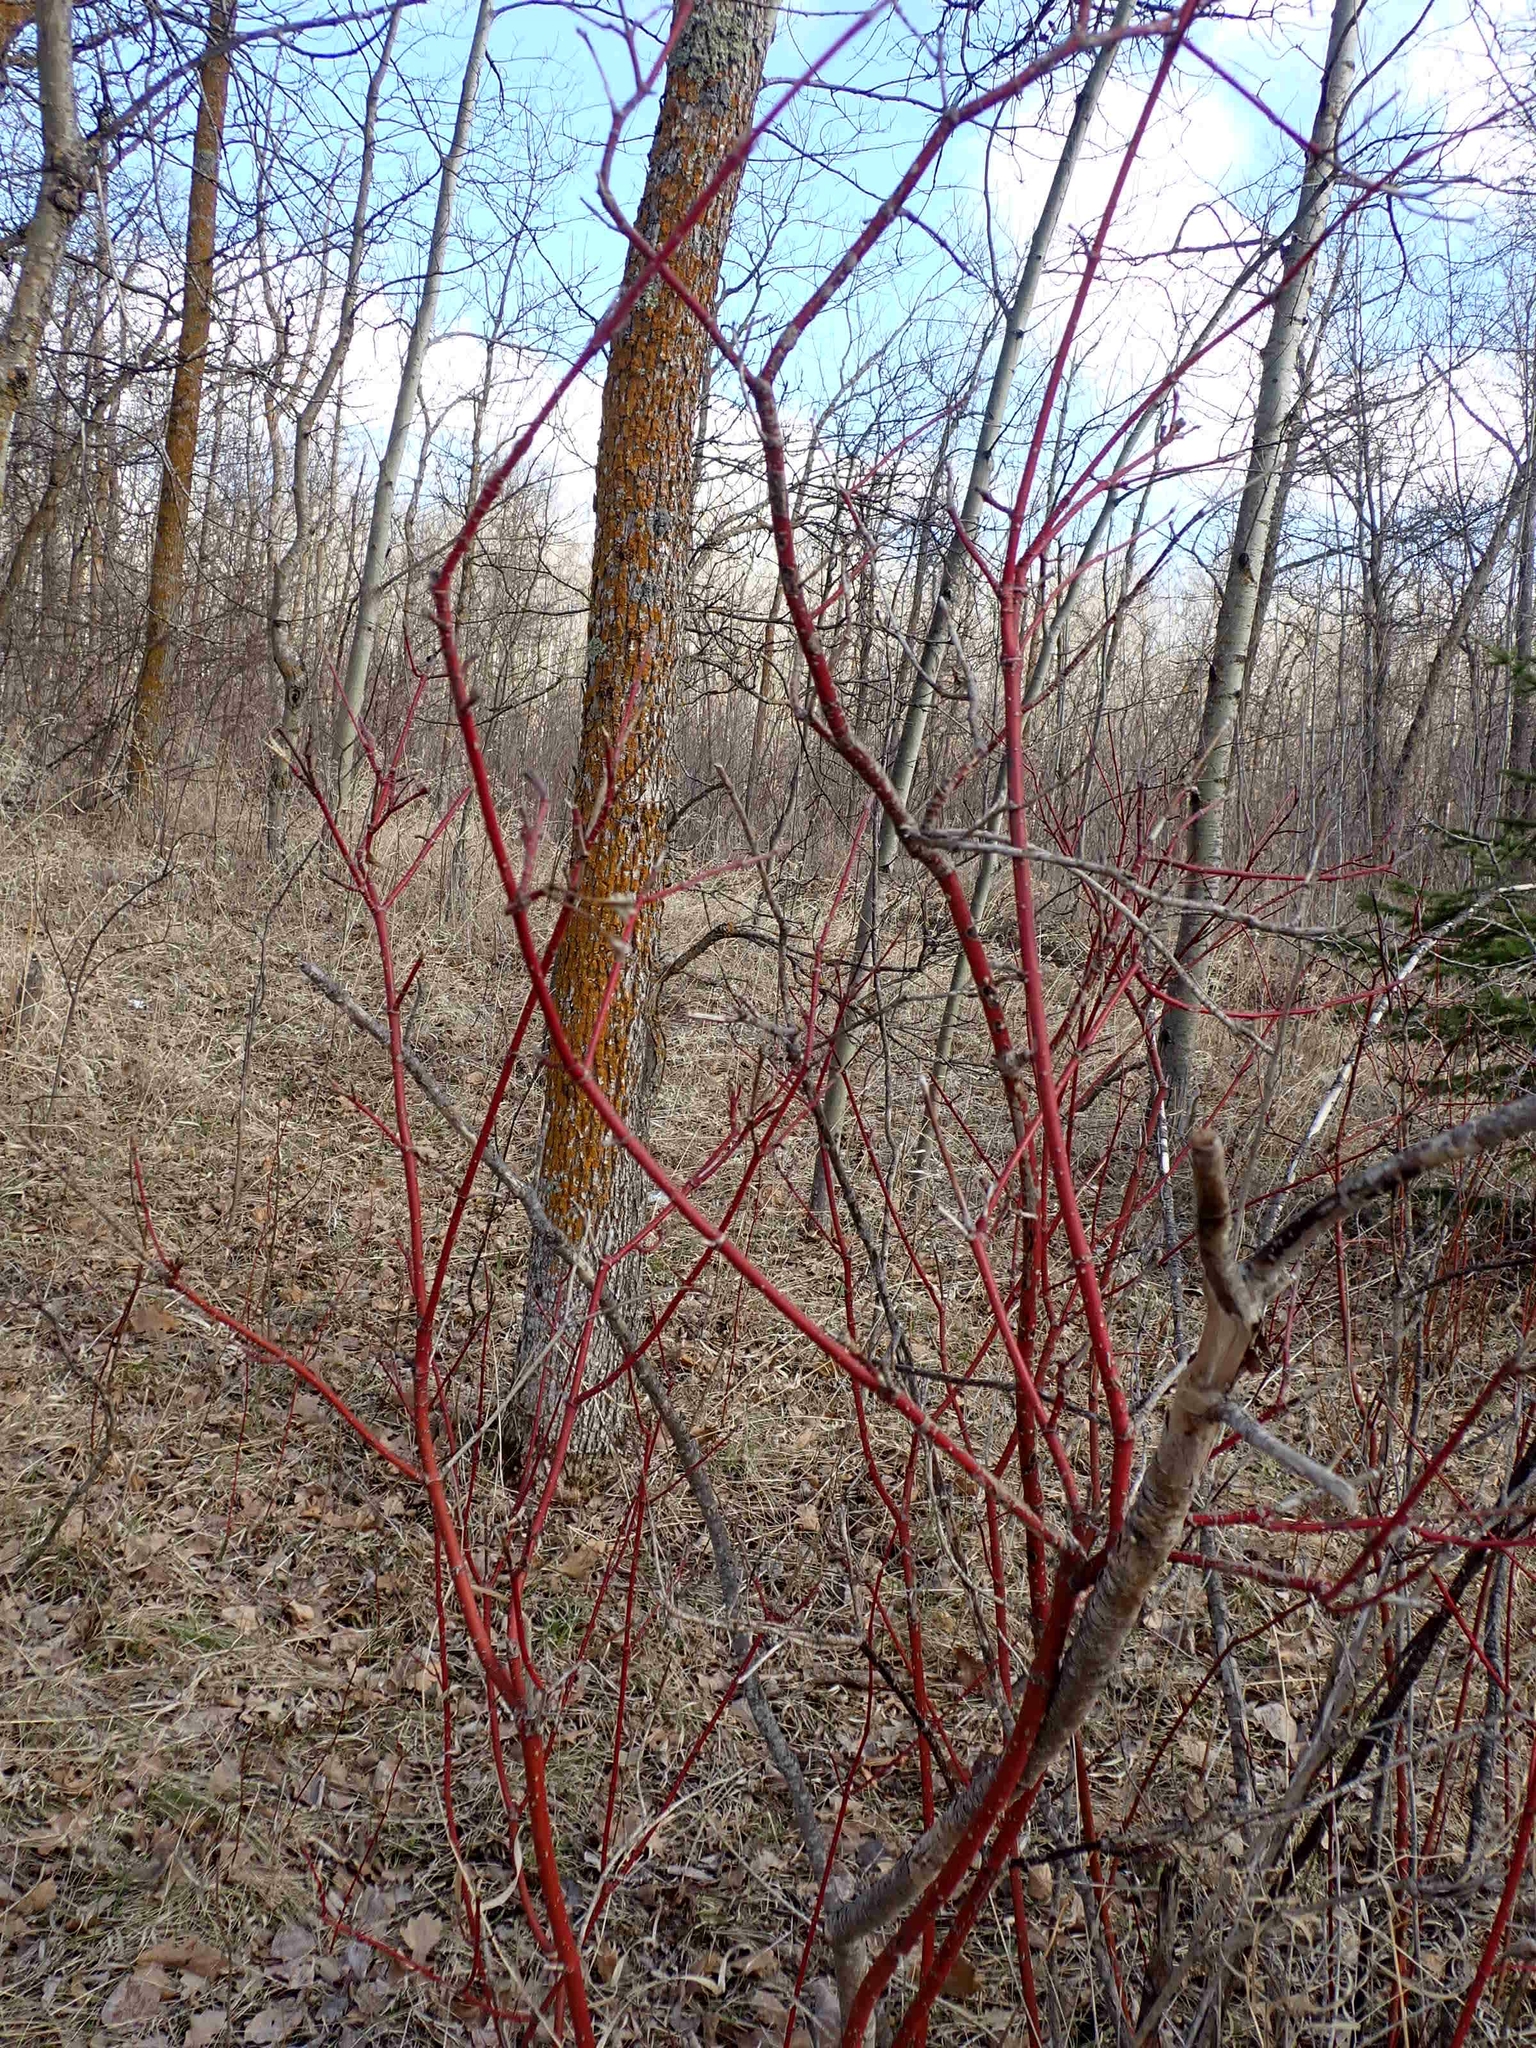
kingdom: Plantae
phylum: Tracheophyta
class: Magnoliopsida
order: Cornales
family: Cornaceae
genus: Cornus
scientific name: Cornus sericea
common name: Red-osier dogwood
